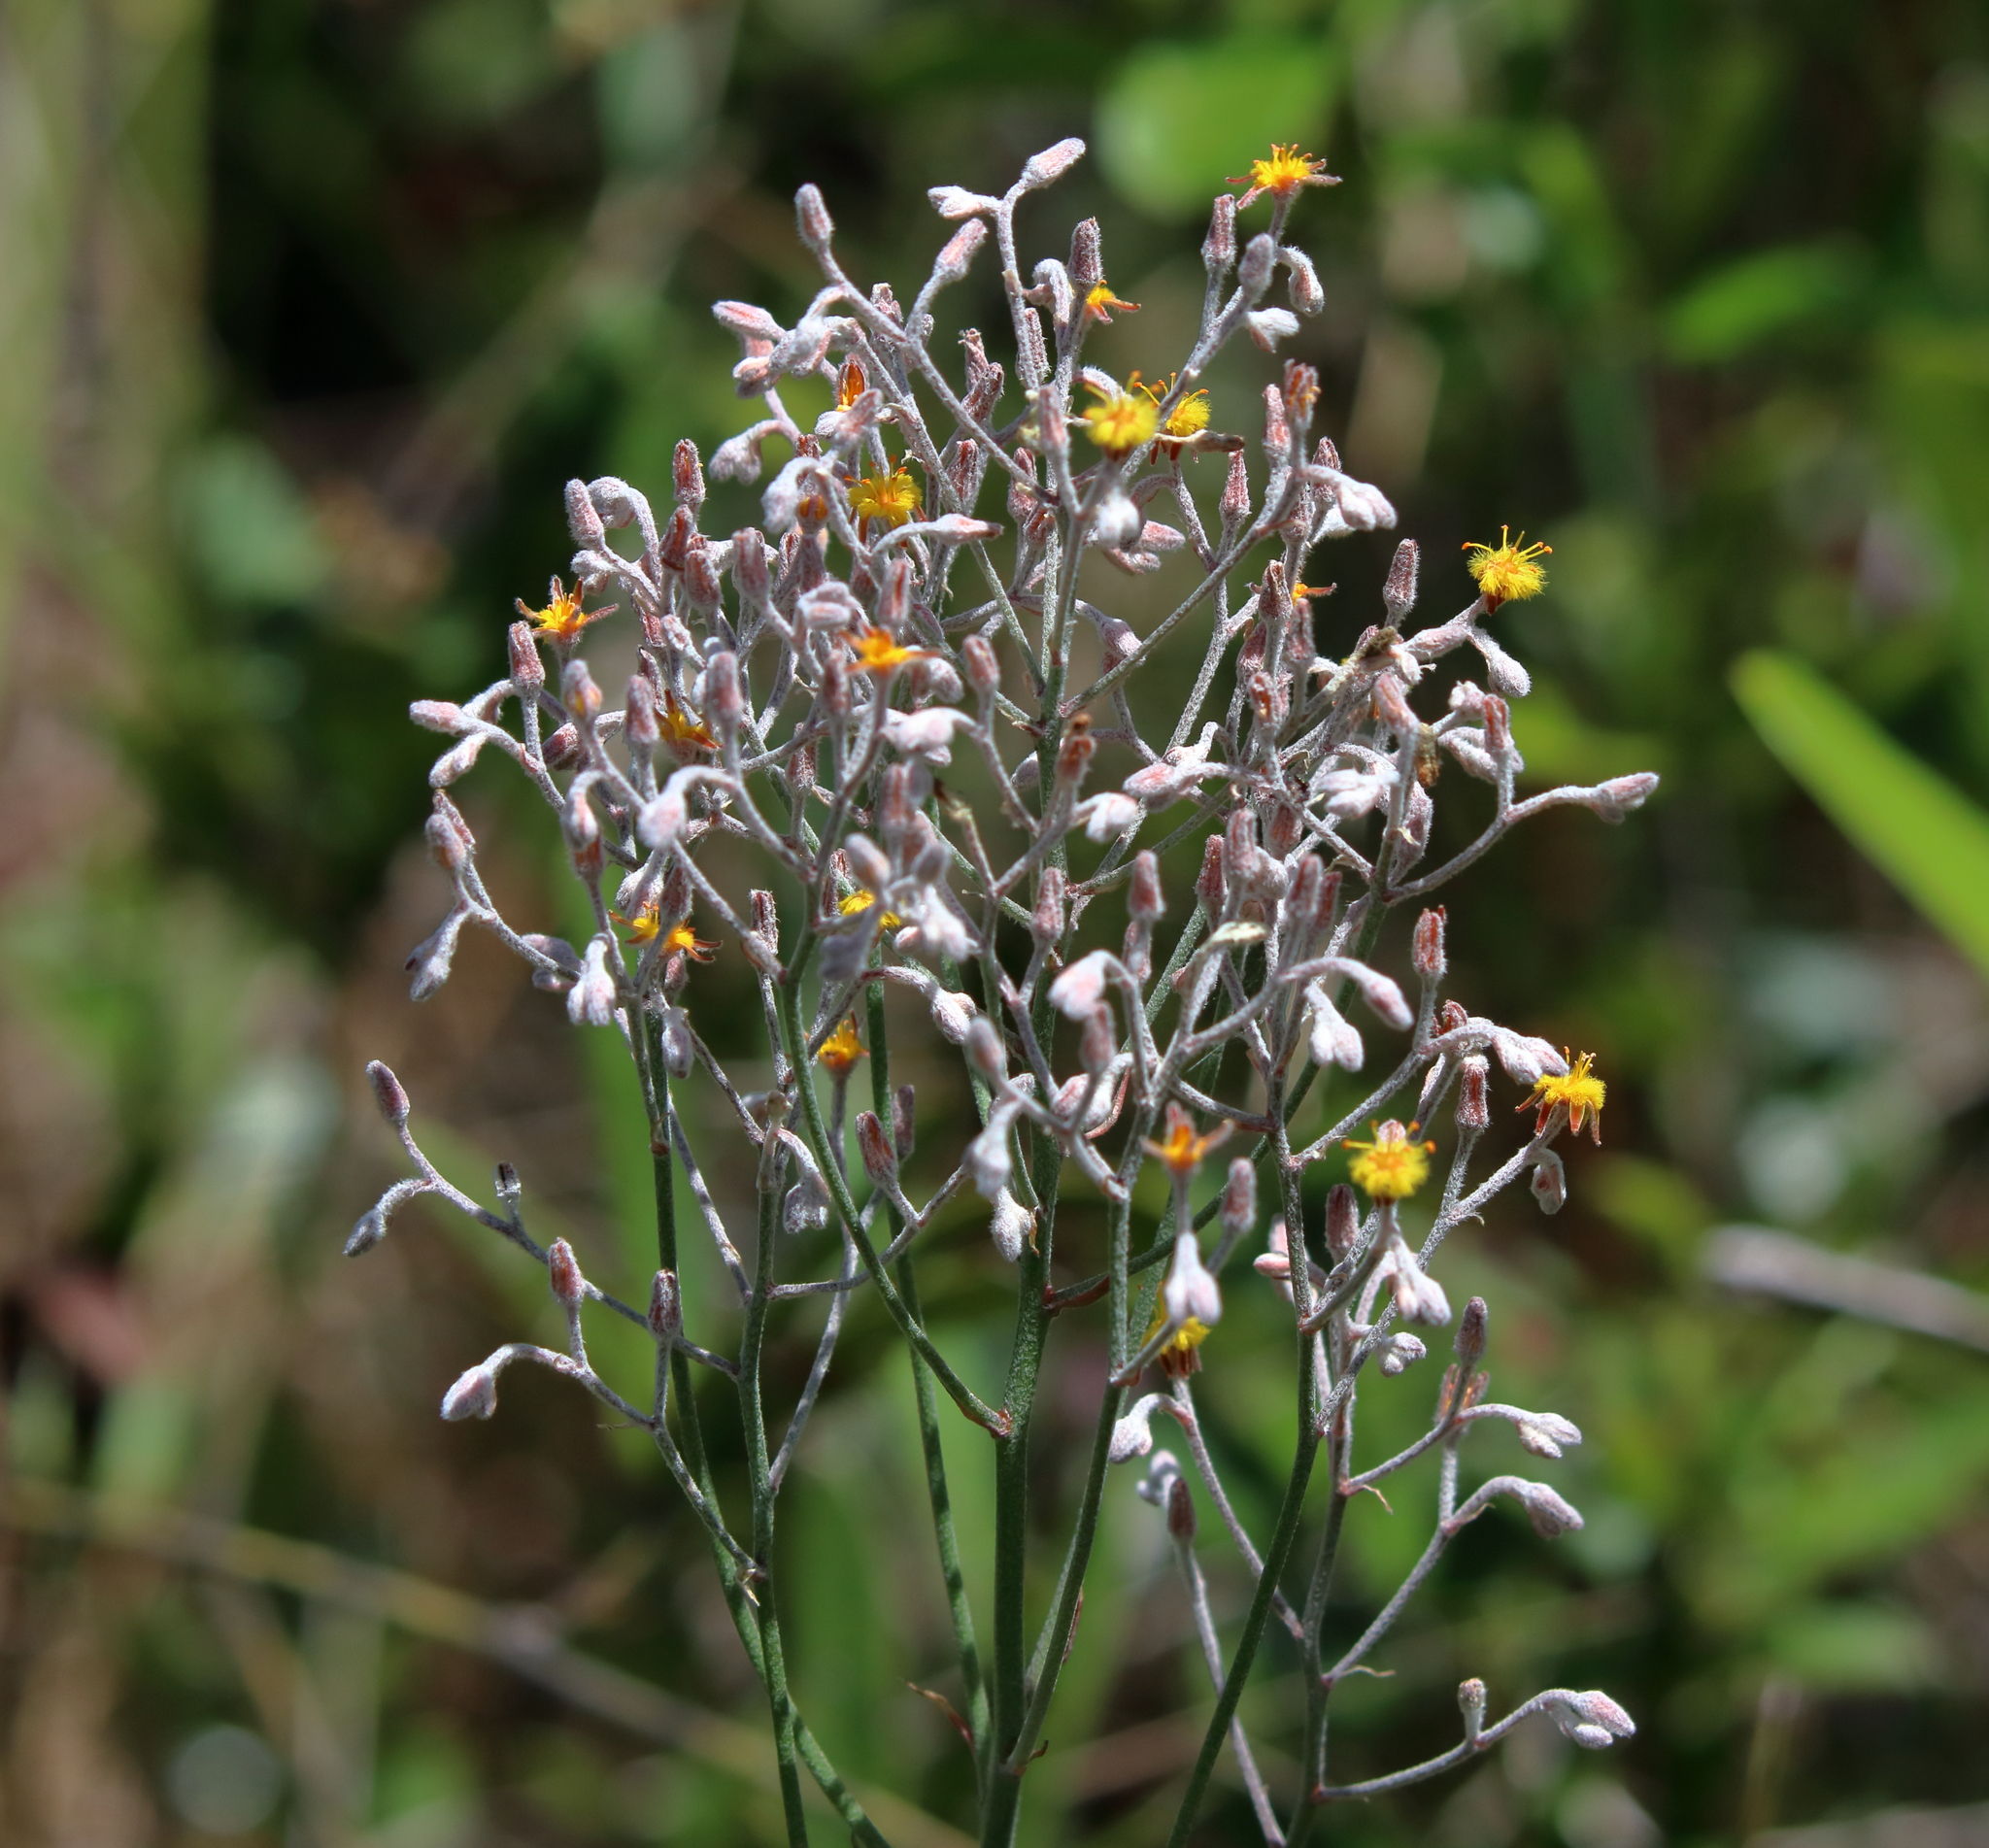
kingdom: Plantae
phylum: Tracheophyta
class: Liliopsida
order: Dioscoreales
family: Nartheciaceae
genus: Lophiola
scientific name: Lophiola aurea
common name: Golden-crest
